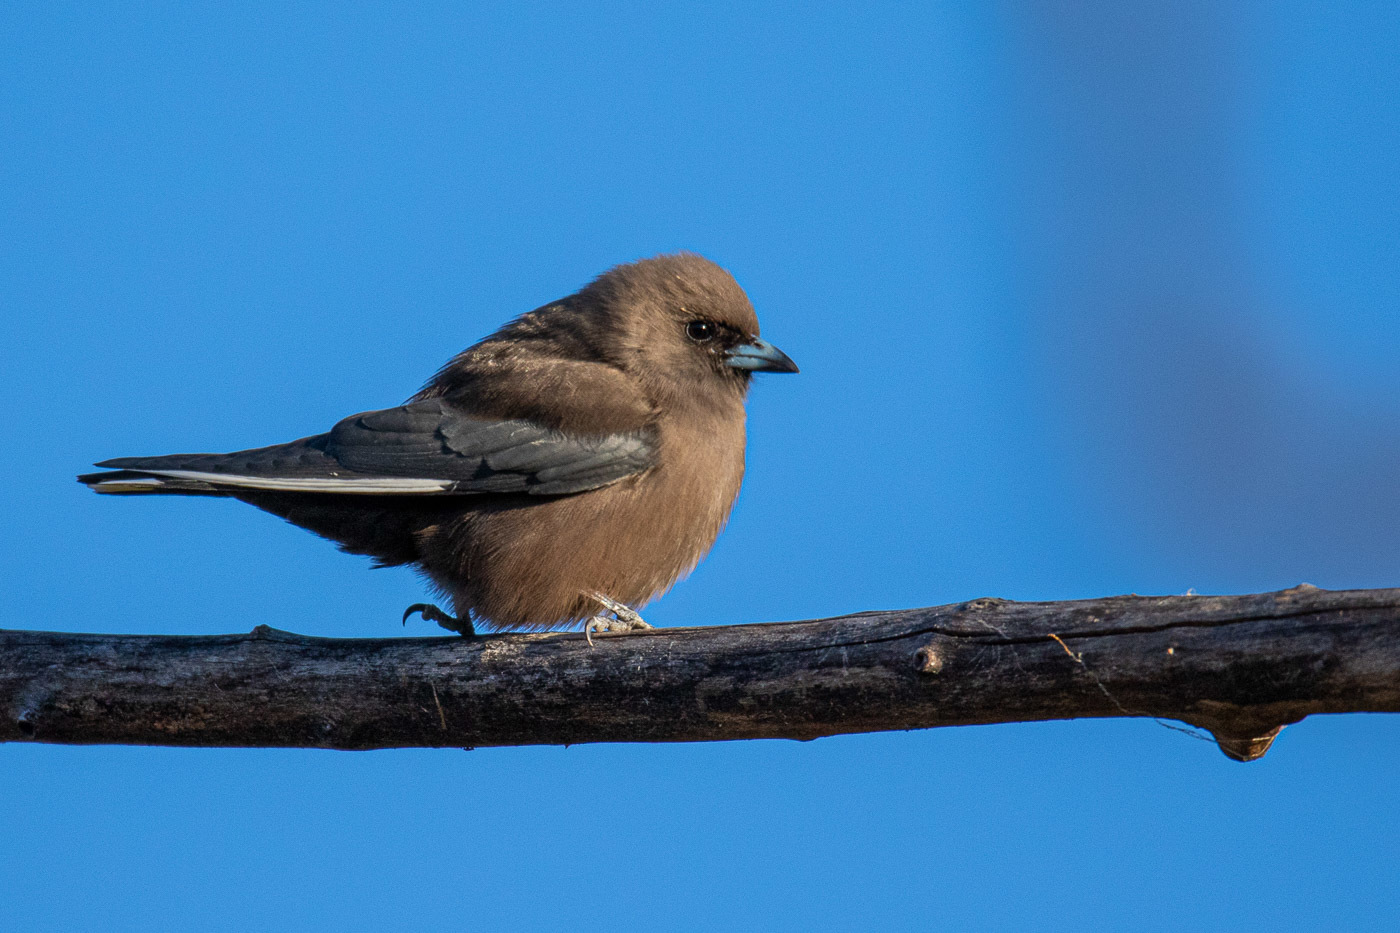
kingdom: Animalia
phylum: Chordata
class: Aves
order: Passeriformes
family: Artamidae
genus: Artamus
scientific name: Artamus cyanopterus
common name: Dusky woodswallow
